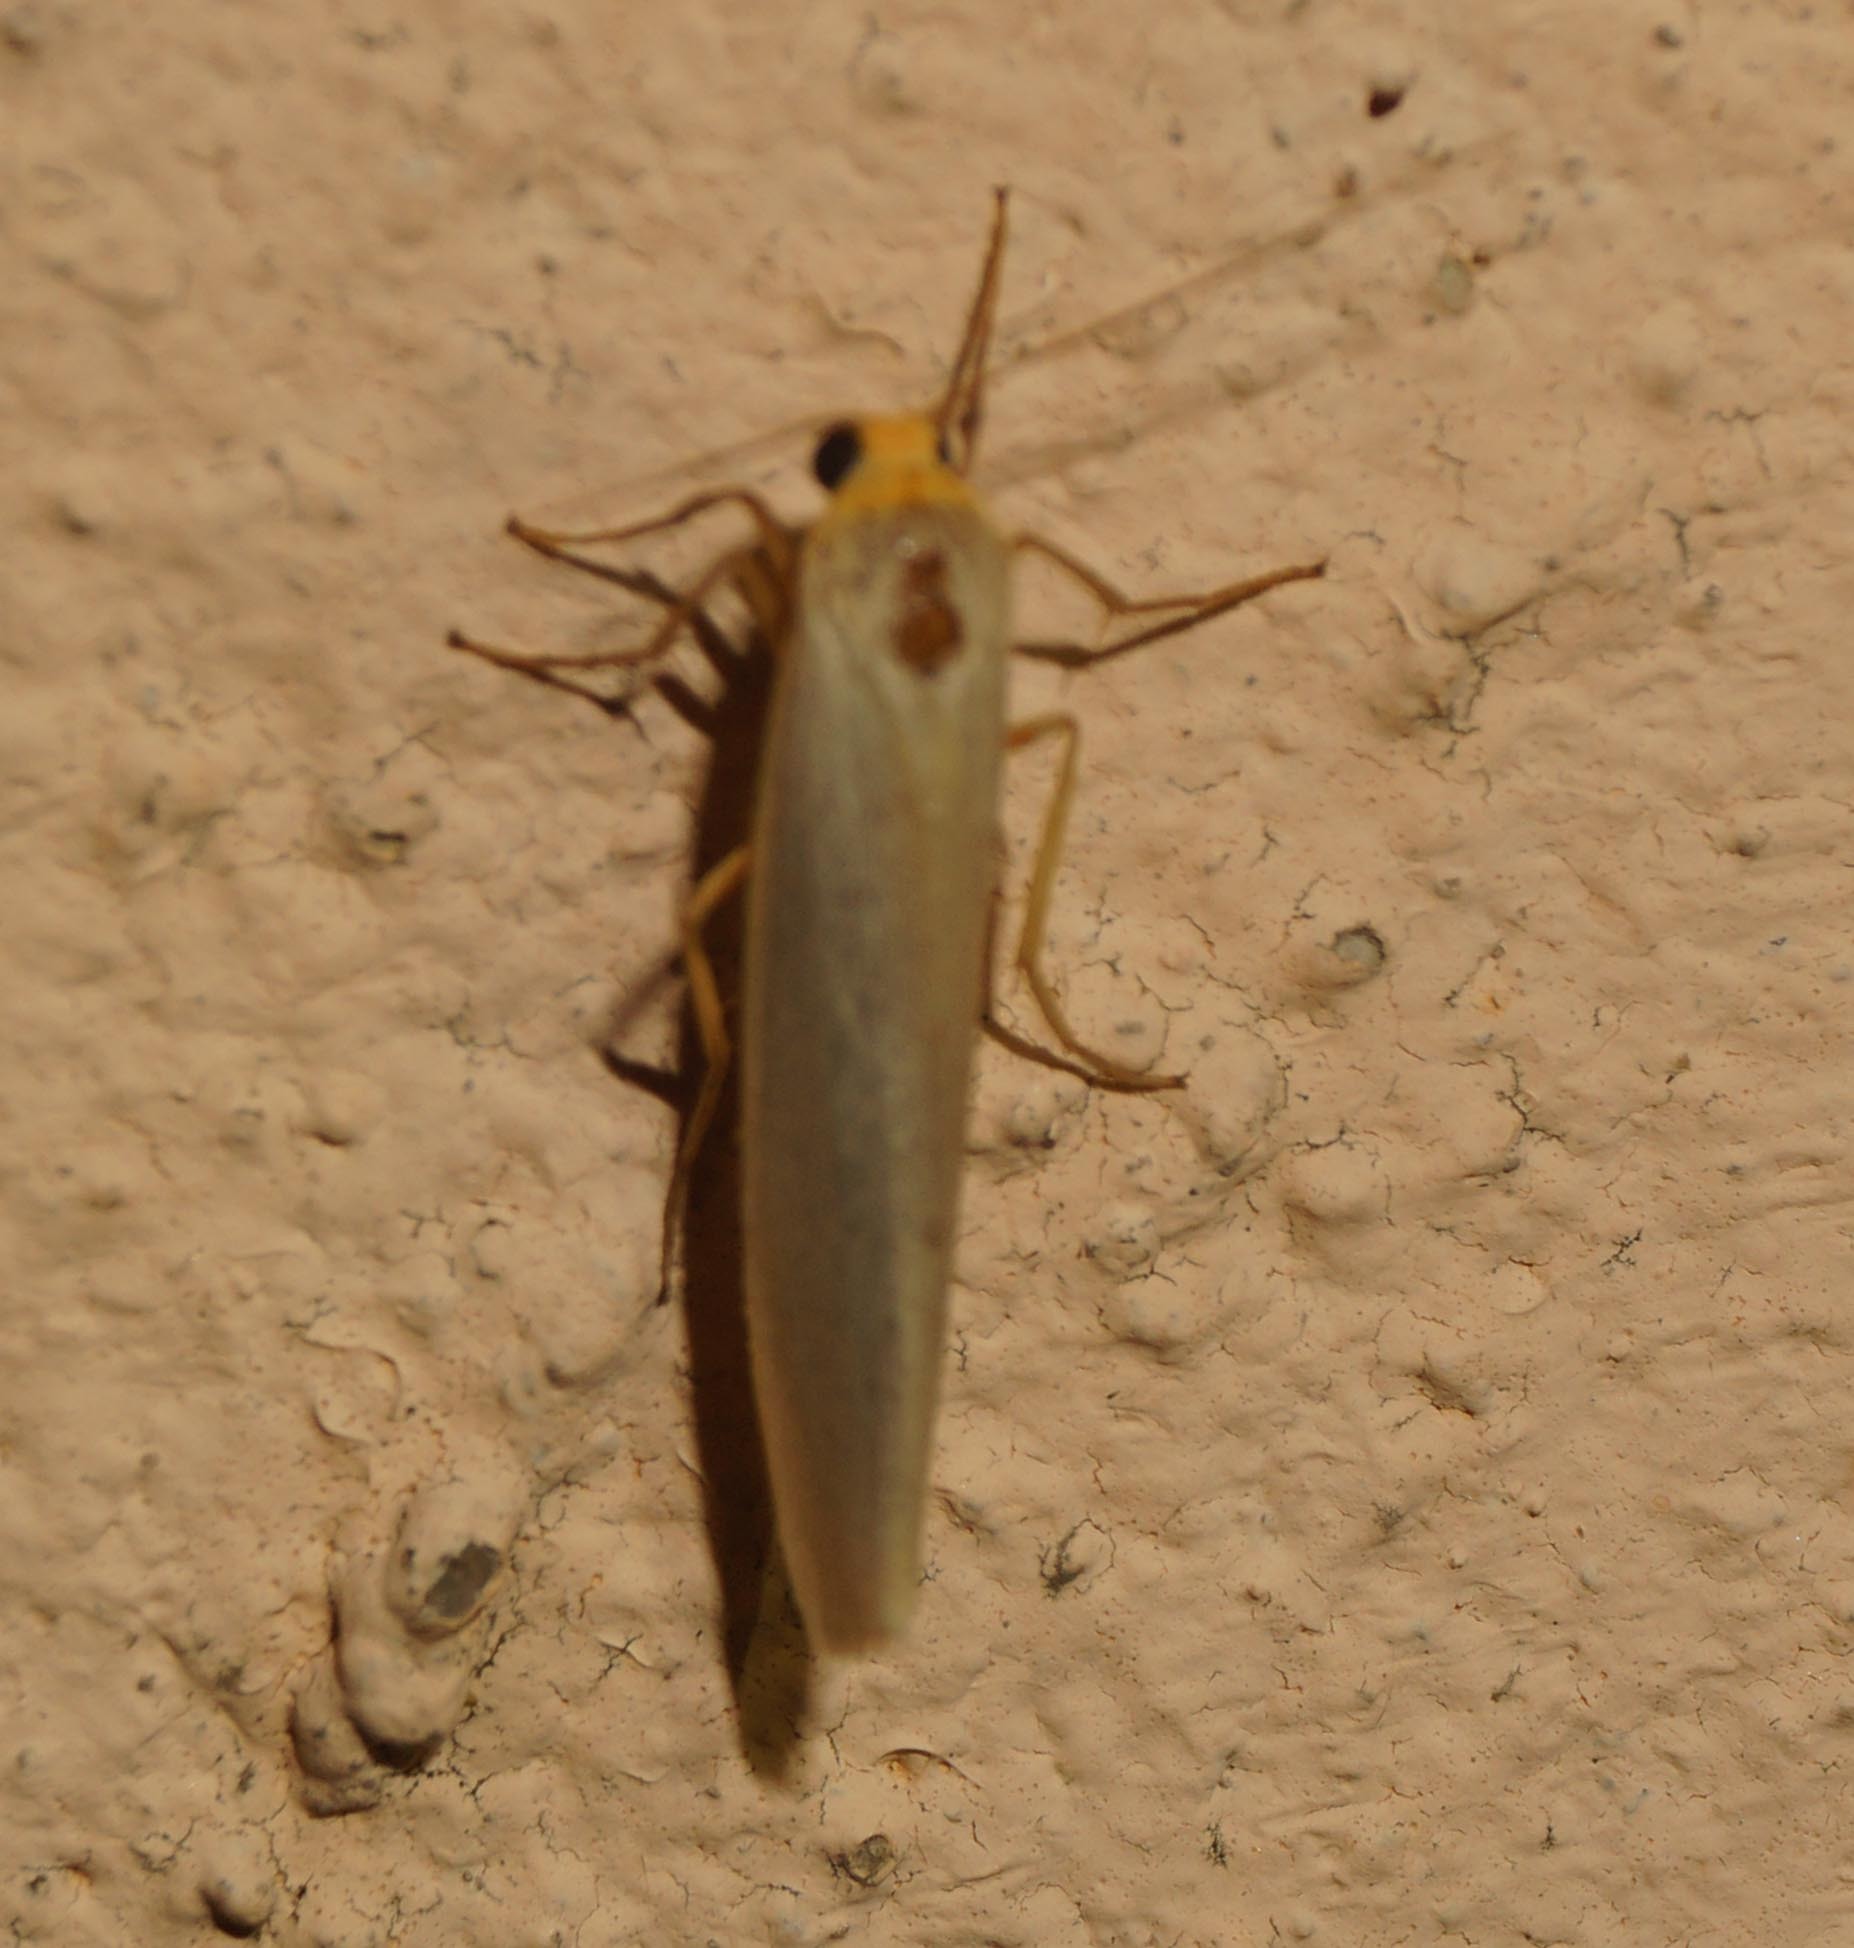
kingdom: Animalia
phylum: Arthropoda
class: Insecta
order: Lepidoptera
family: Erebidae
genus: Manulea
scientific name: Manulea complana
